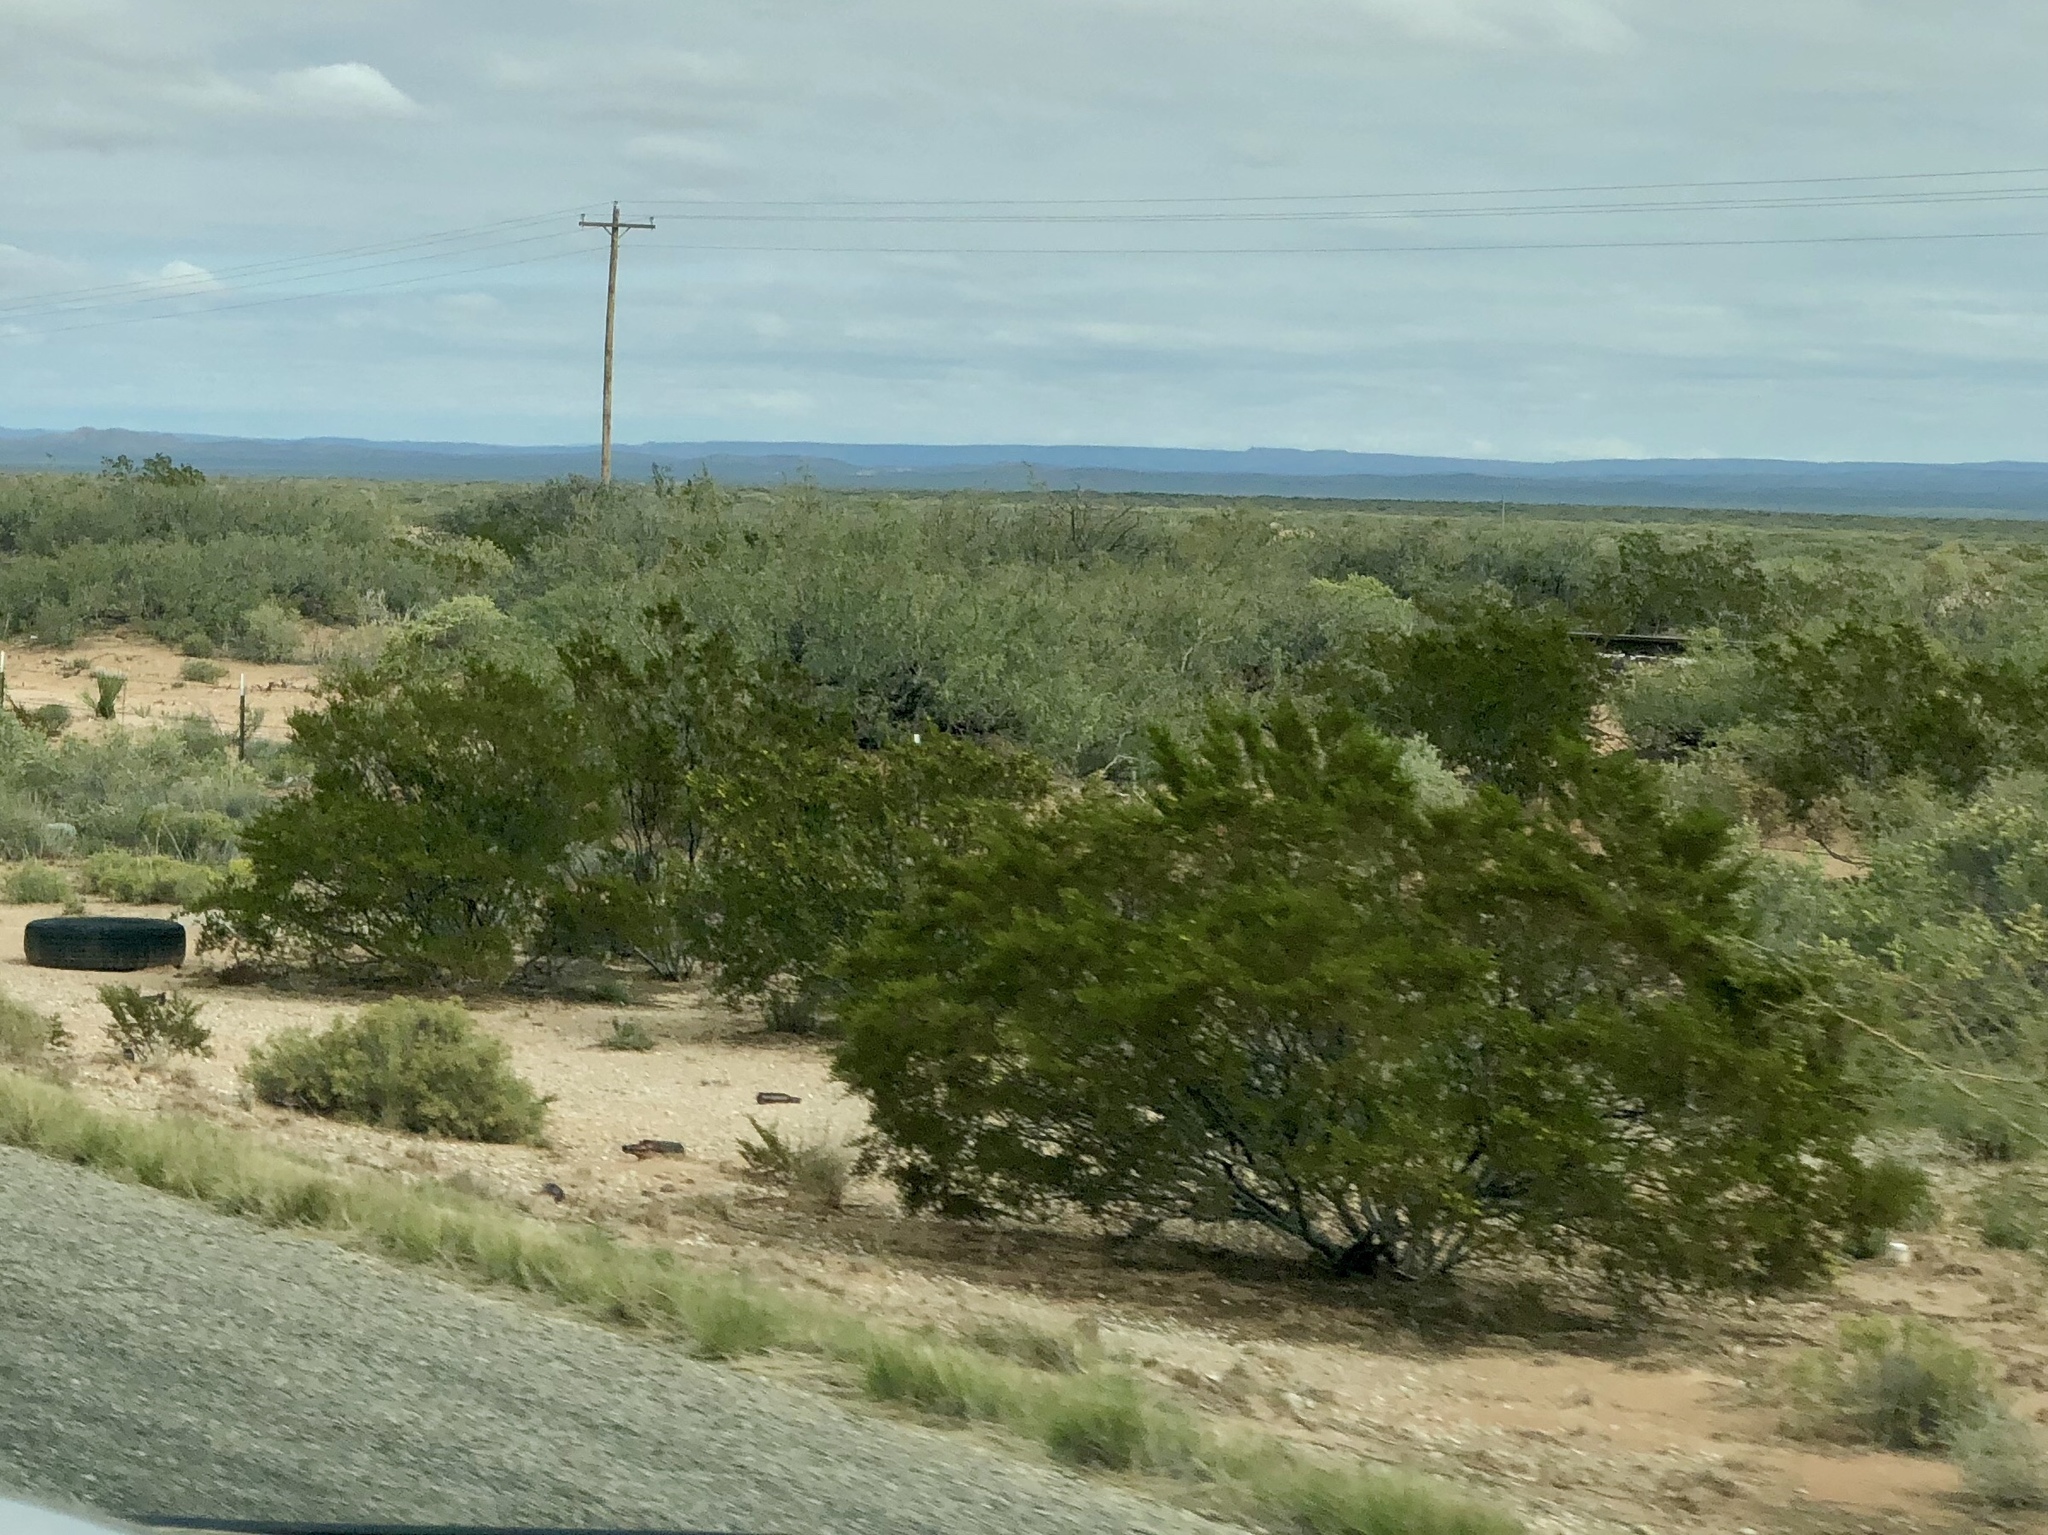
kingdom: Plantae
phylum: Tracheophyta
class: Magnoliopsida
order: Zygophyllales
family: Zygophyllaceae
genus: Larrea
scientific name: Larrea tridentata
